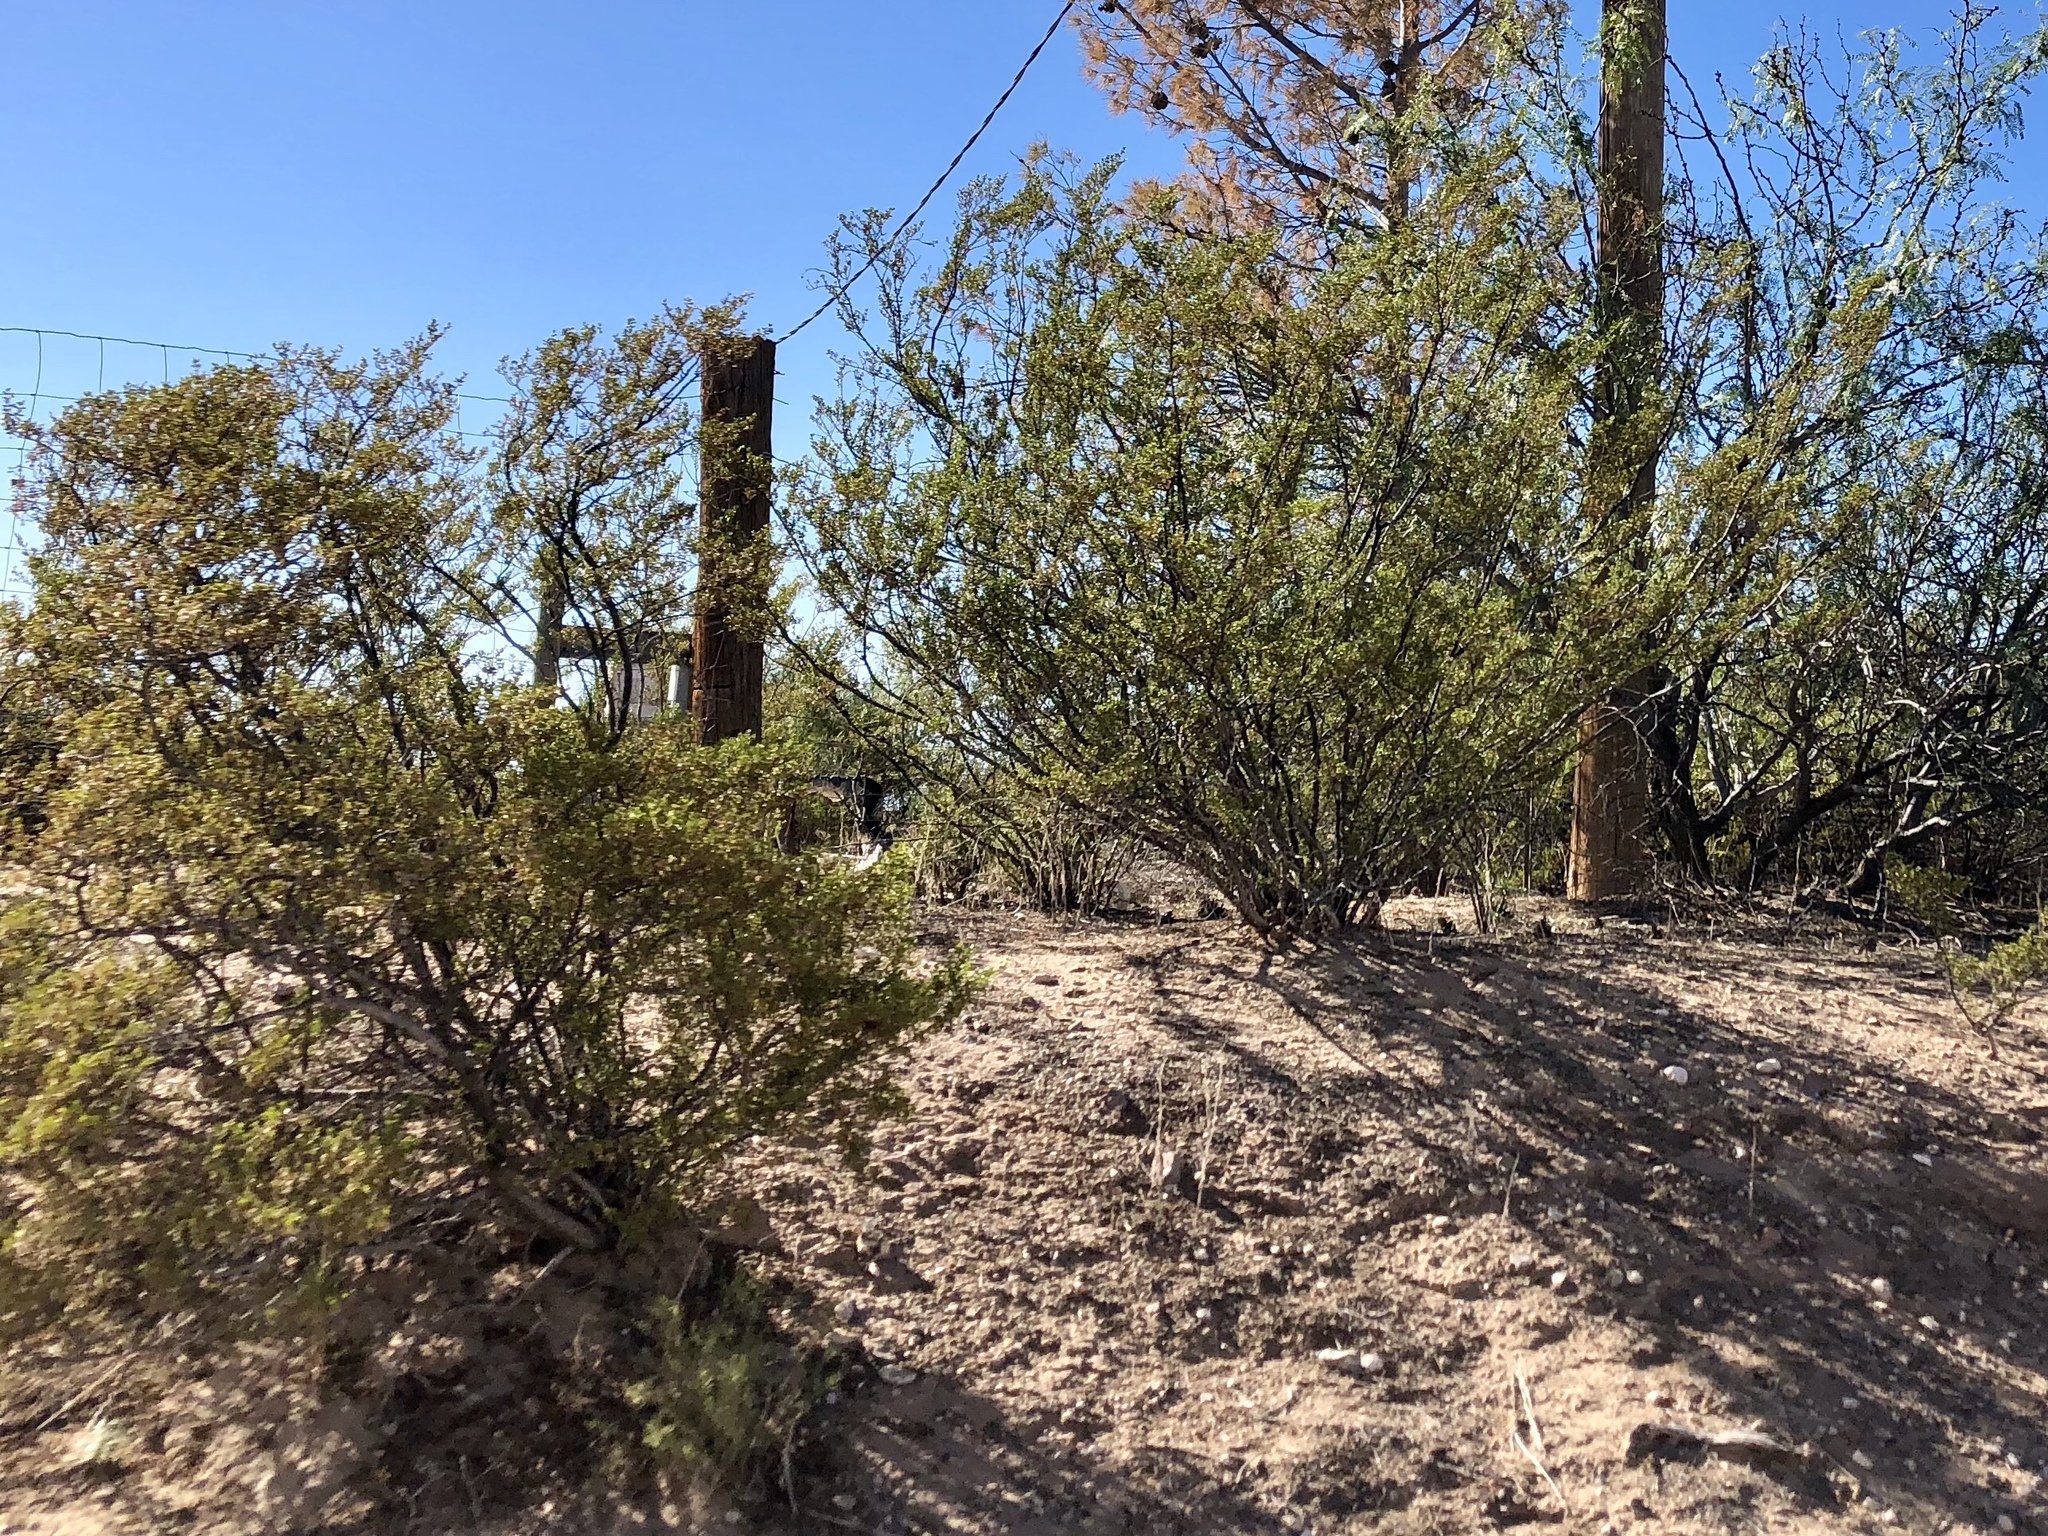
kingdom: Plantae
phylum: Tracheophyta
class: Magnoliopsida
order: Zygophyllales
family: Zygophyllaceae
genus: Larrea
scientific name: Larrea tridentata
